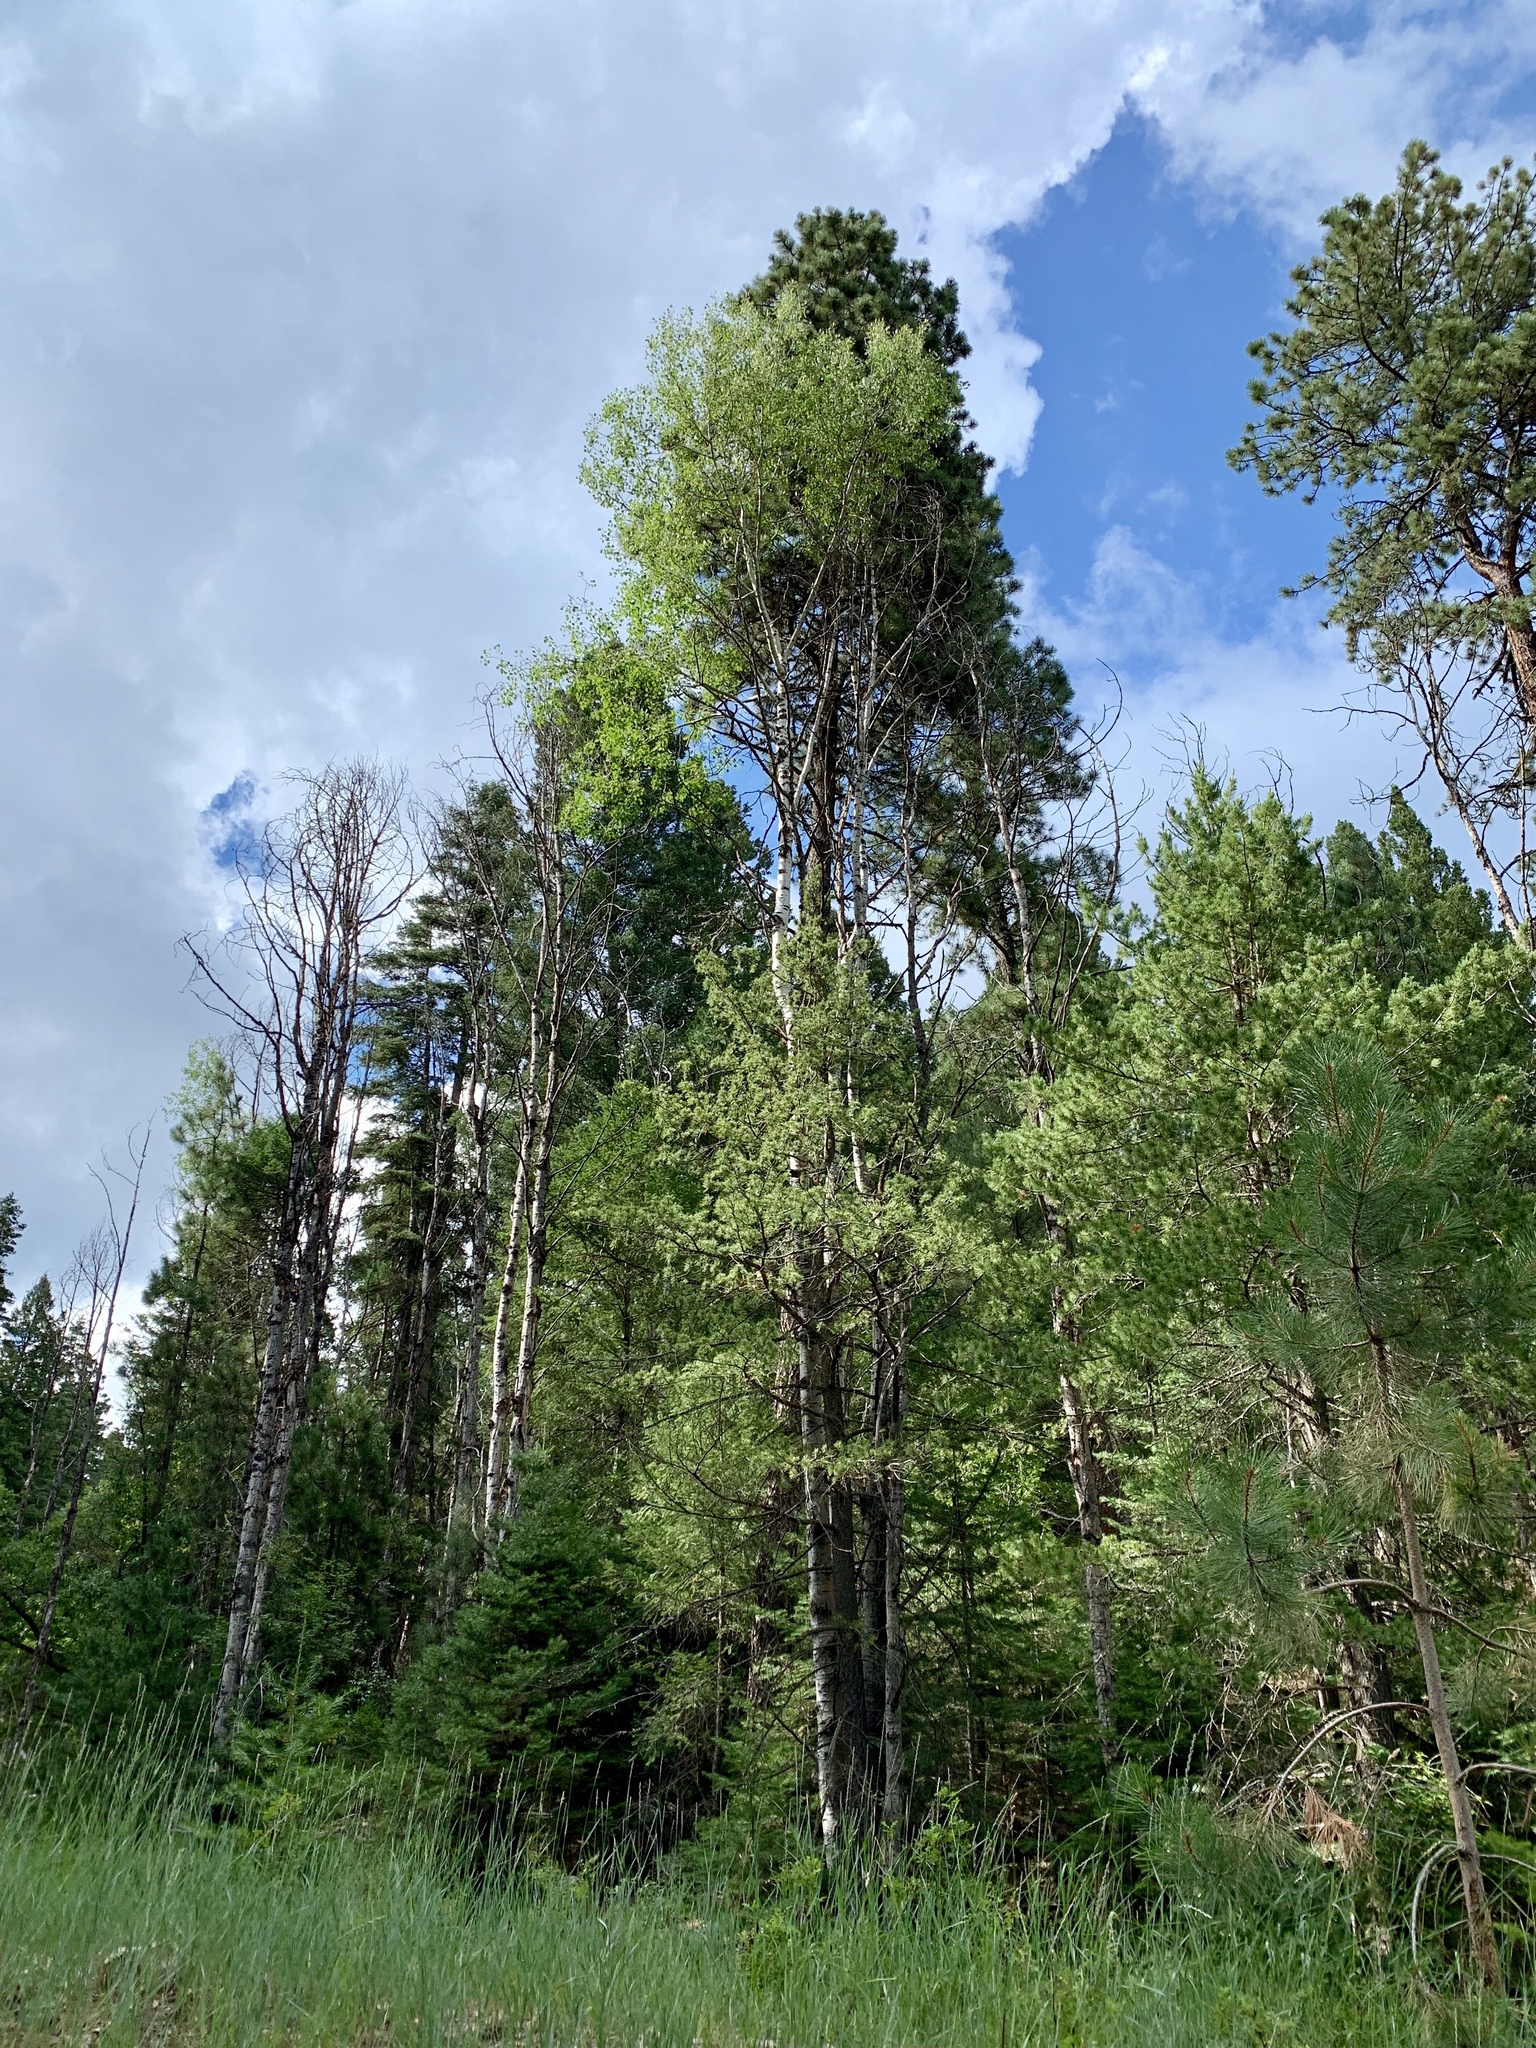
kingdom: Plantae
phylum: Tracheophyta
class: Magnoliopsida
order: Malpighiales
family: Salicaceae
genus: Populus
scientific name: Populus tremuloides
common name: Quaking aspen
